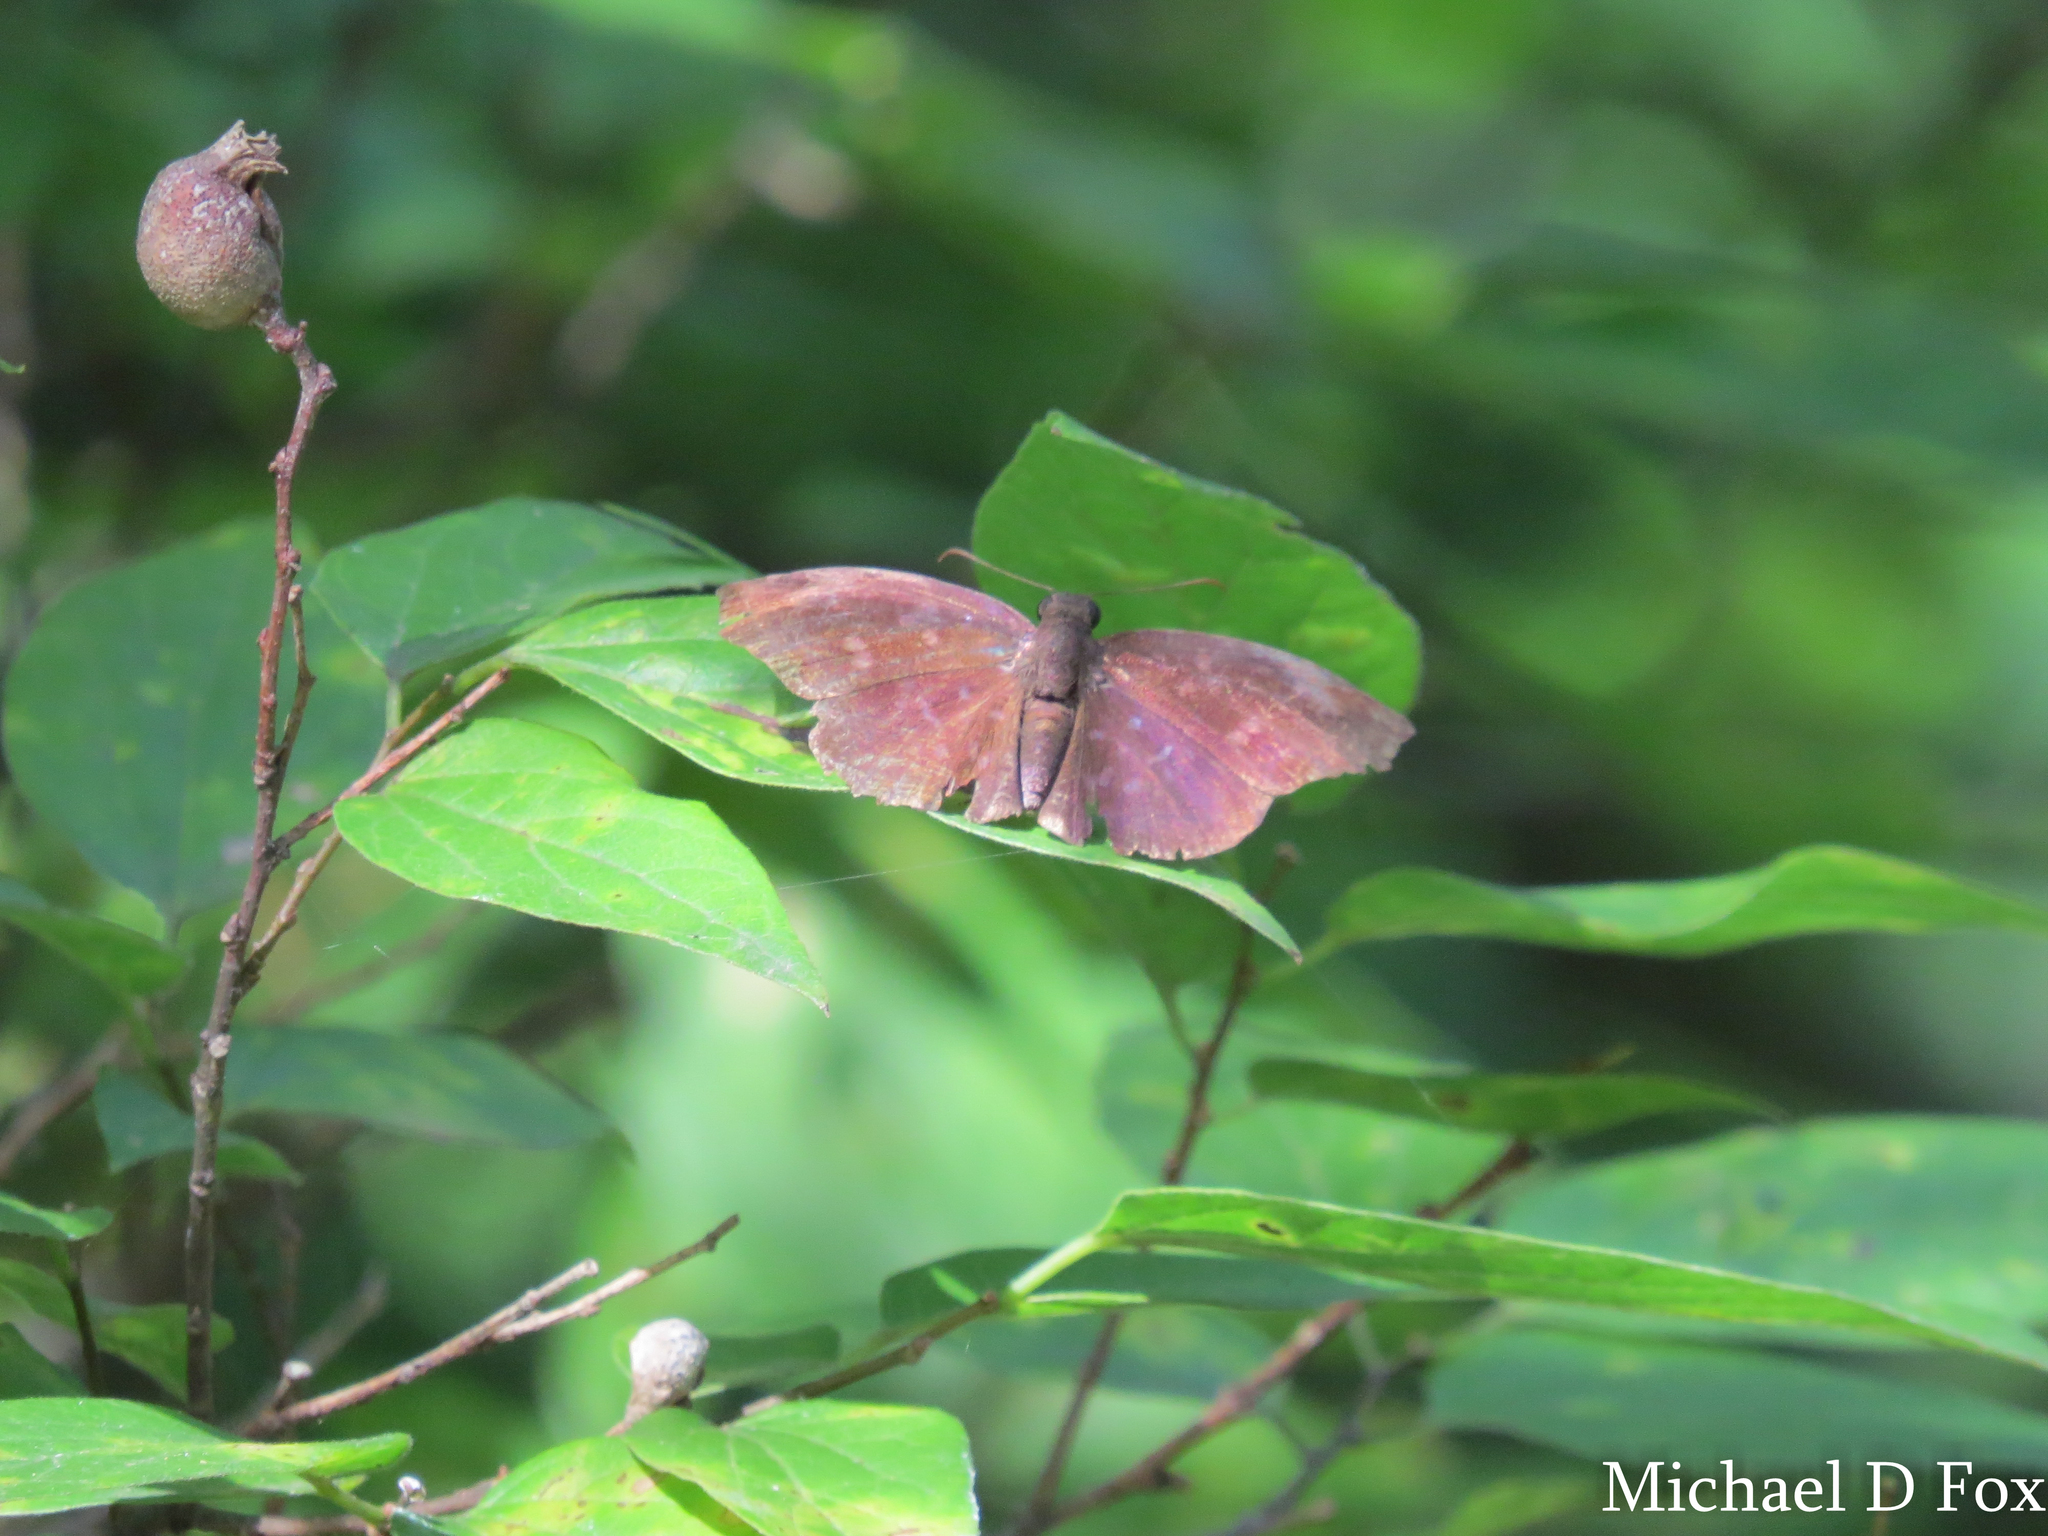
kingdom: Animalia
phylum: Arthropoda
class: Insecta
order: Lepidoptera
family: Hesperiidae
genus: Achlyodes
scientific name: Achlyodes thraso
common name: Sickle-winged skipper
